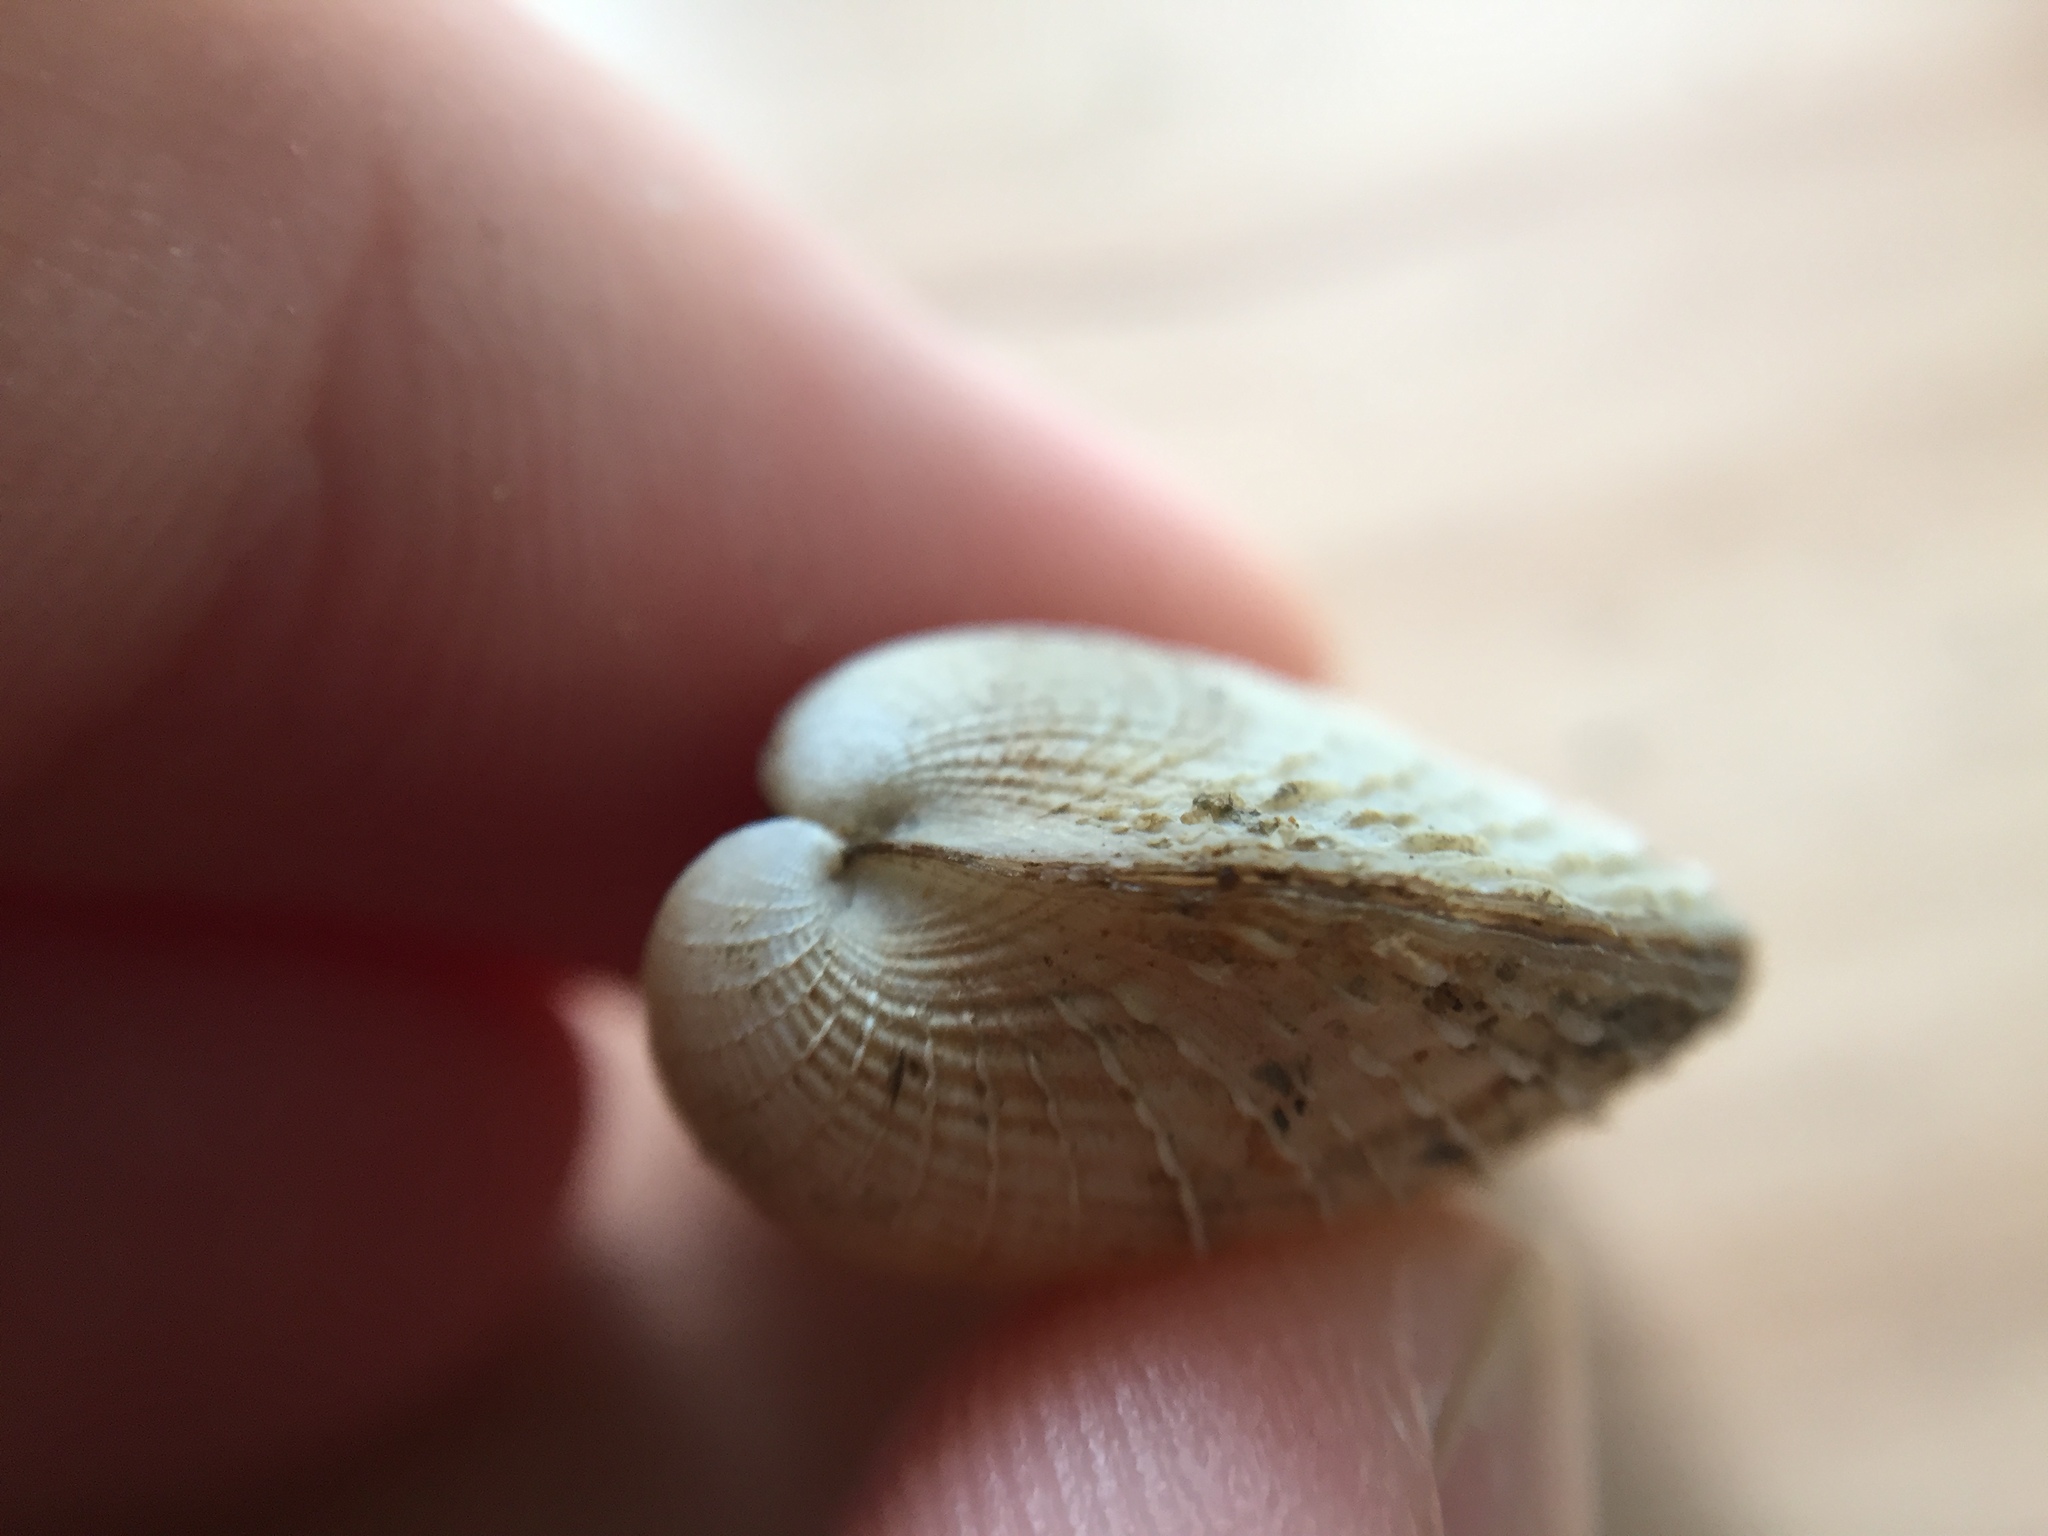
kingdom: Animalia
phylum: Mollusca
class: Bivalvia
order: Venerida
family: Veneridae
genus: Austrovenus
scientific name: Austrovenus stutchburyi
